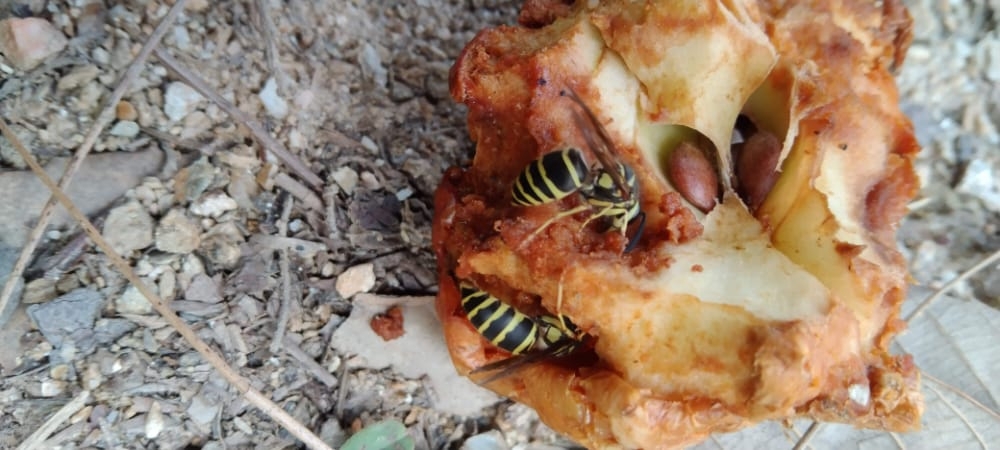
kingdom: Animalia
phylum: Arthropoda
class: Insecta
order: Hymenoptera
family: Vespidae
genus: Vespula
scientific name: Vespula flaviceps
